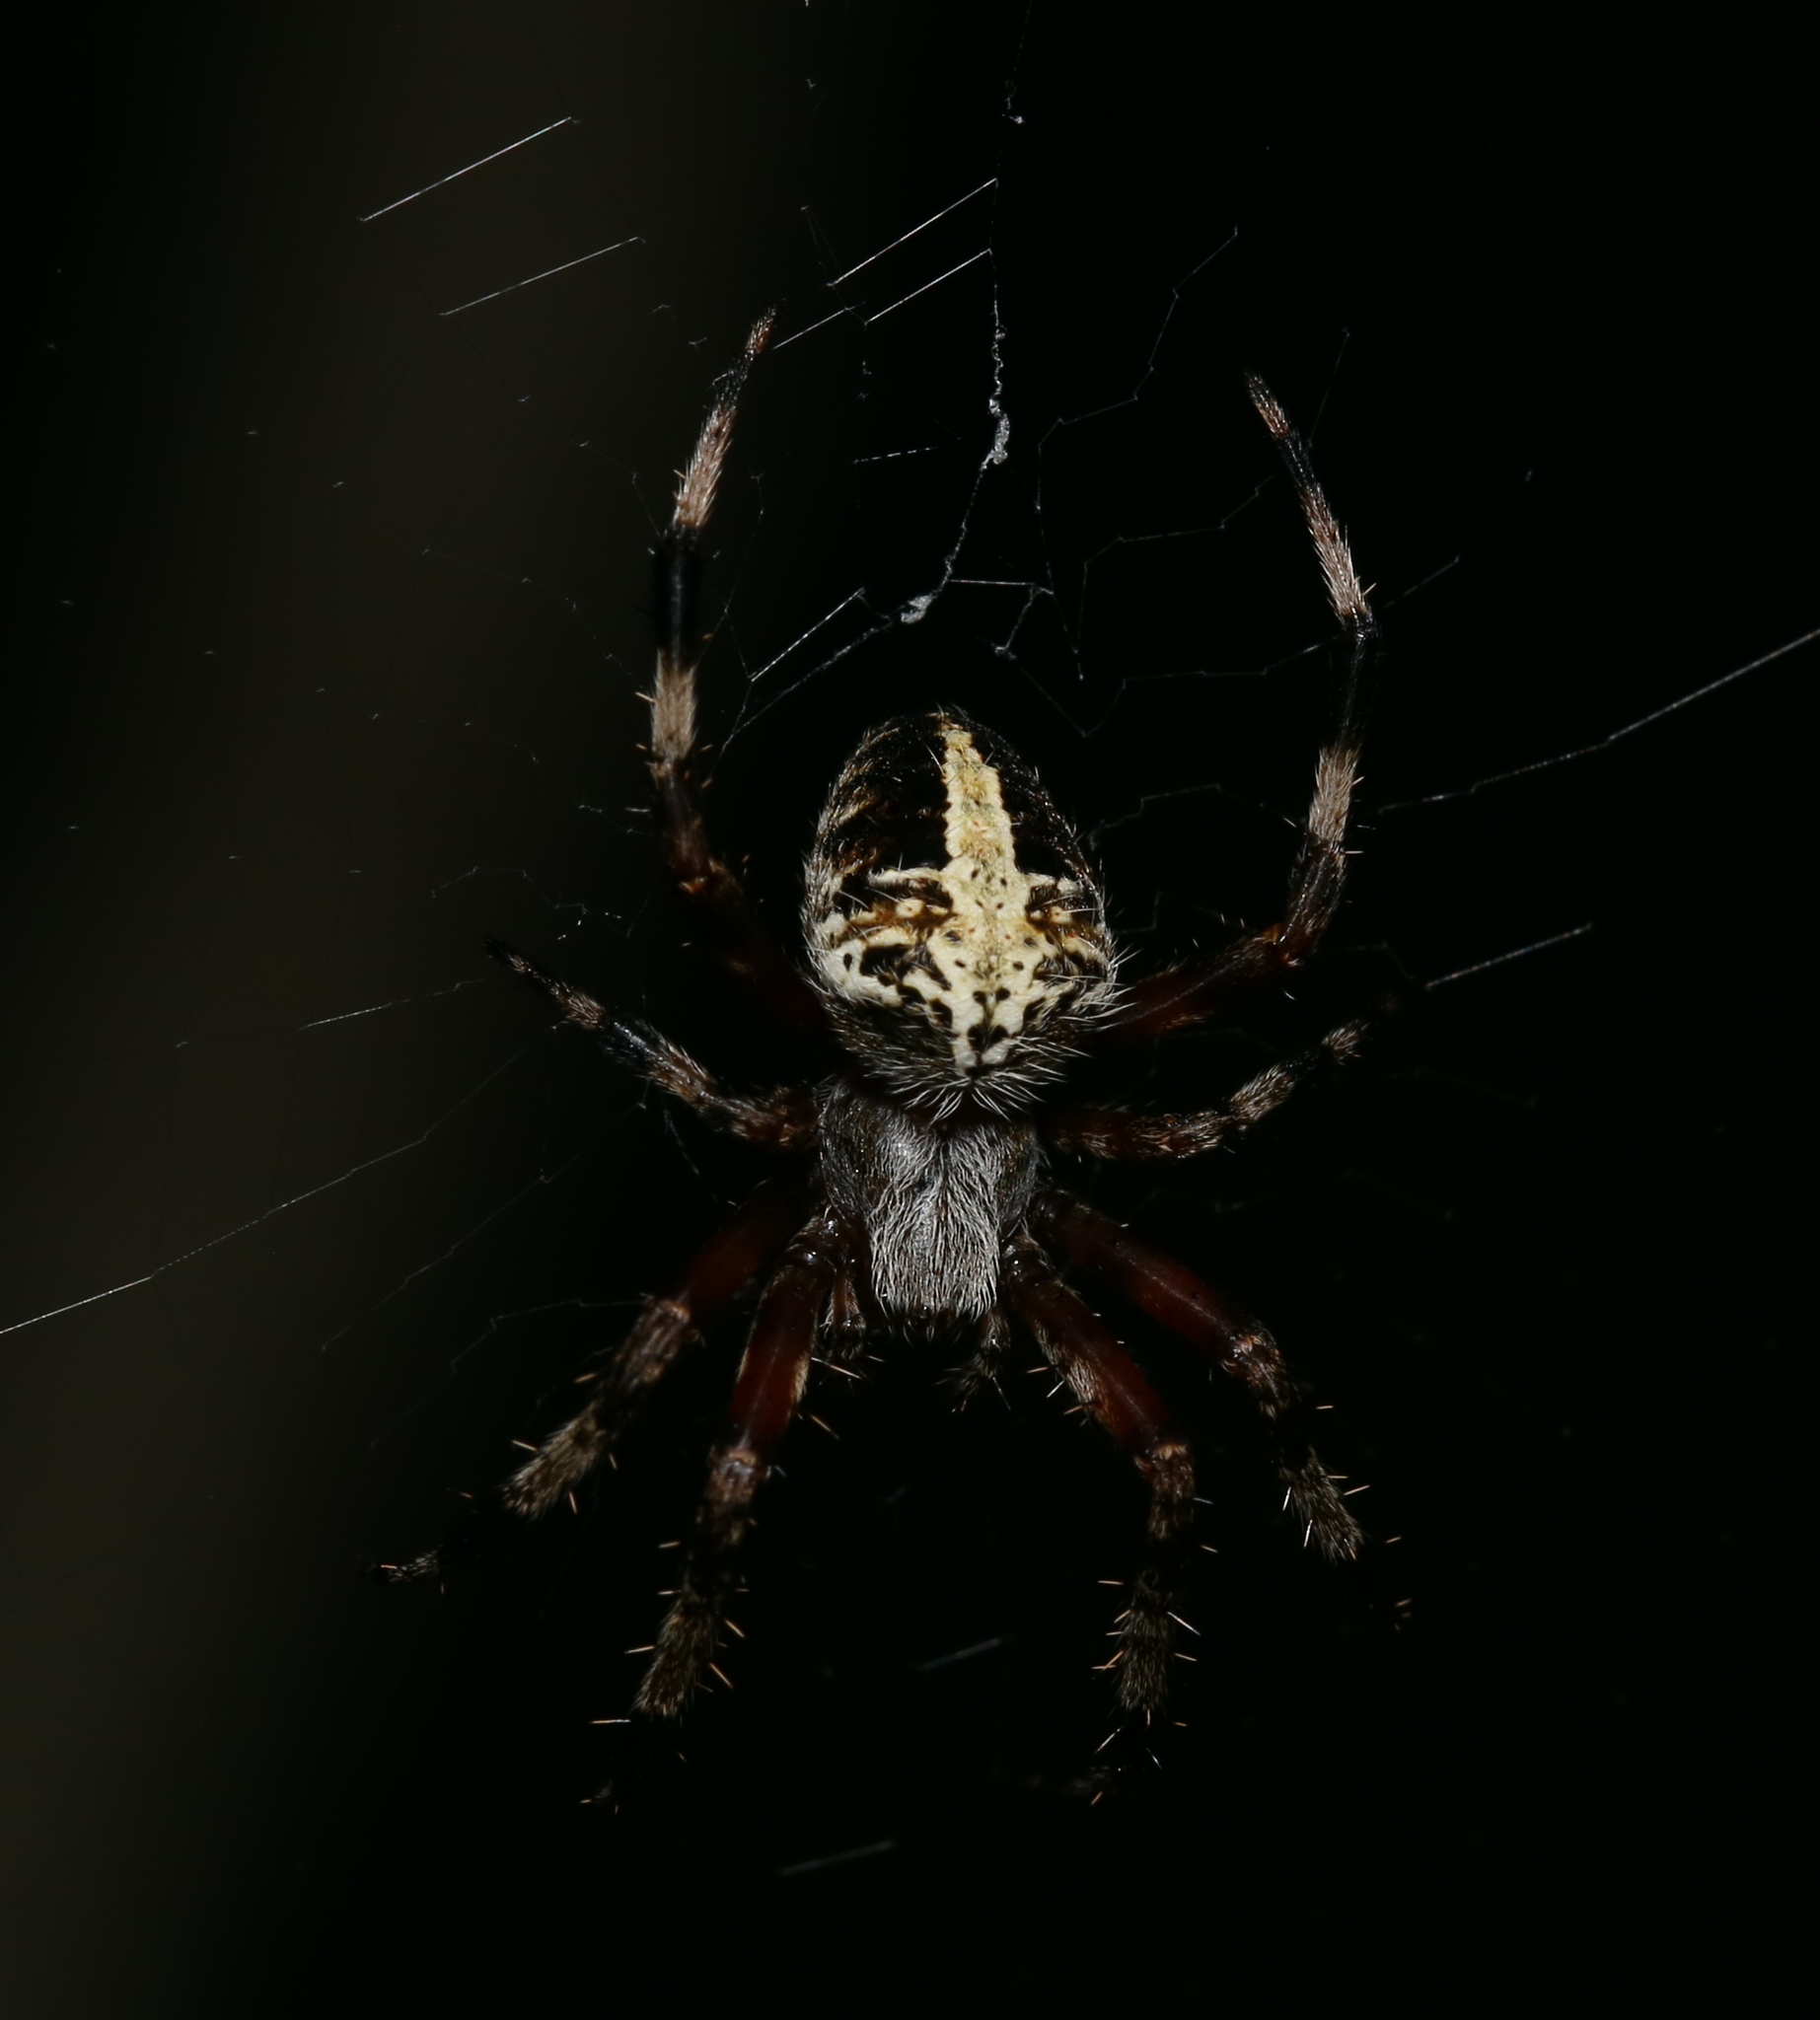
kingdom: Animalia
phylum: Arthropoda
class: Arachnida
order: Araneae
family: Araneidae
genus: Neoscona
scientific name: Neoscona domiciliorum
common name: Red-femured spotted orbweaver
